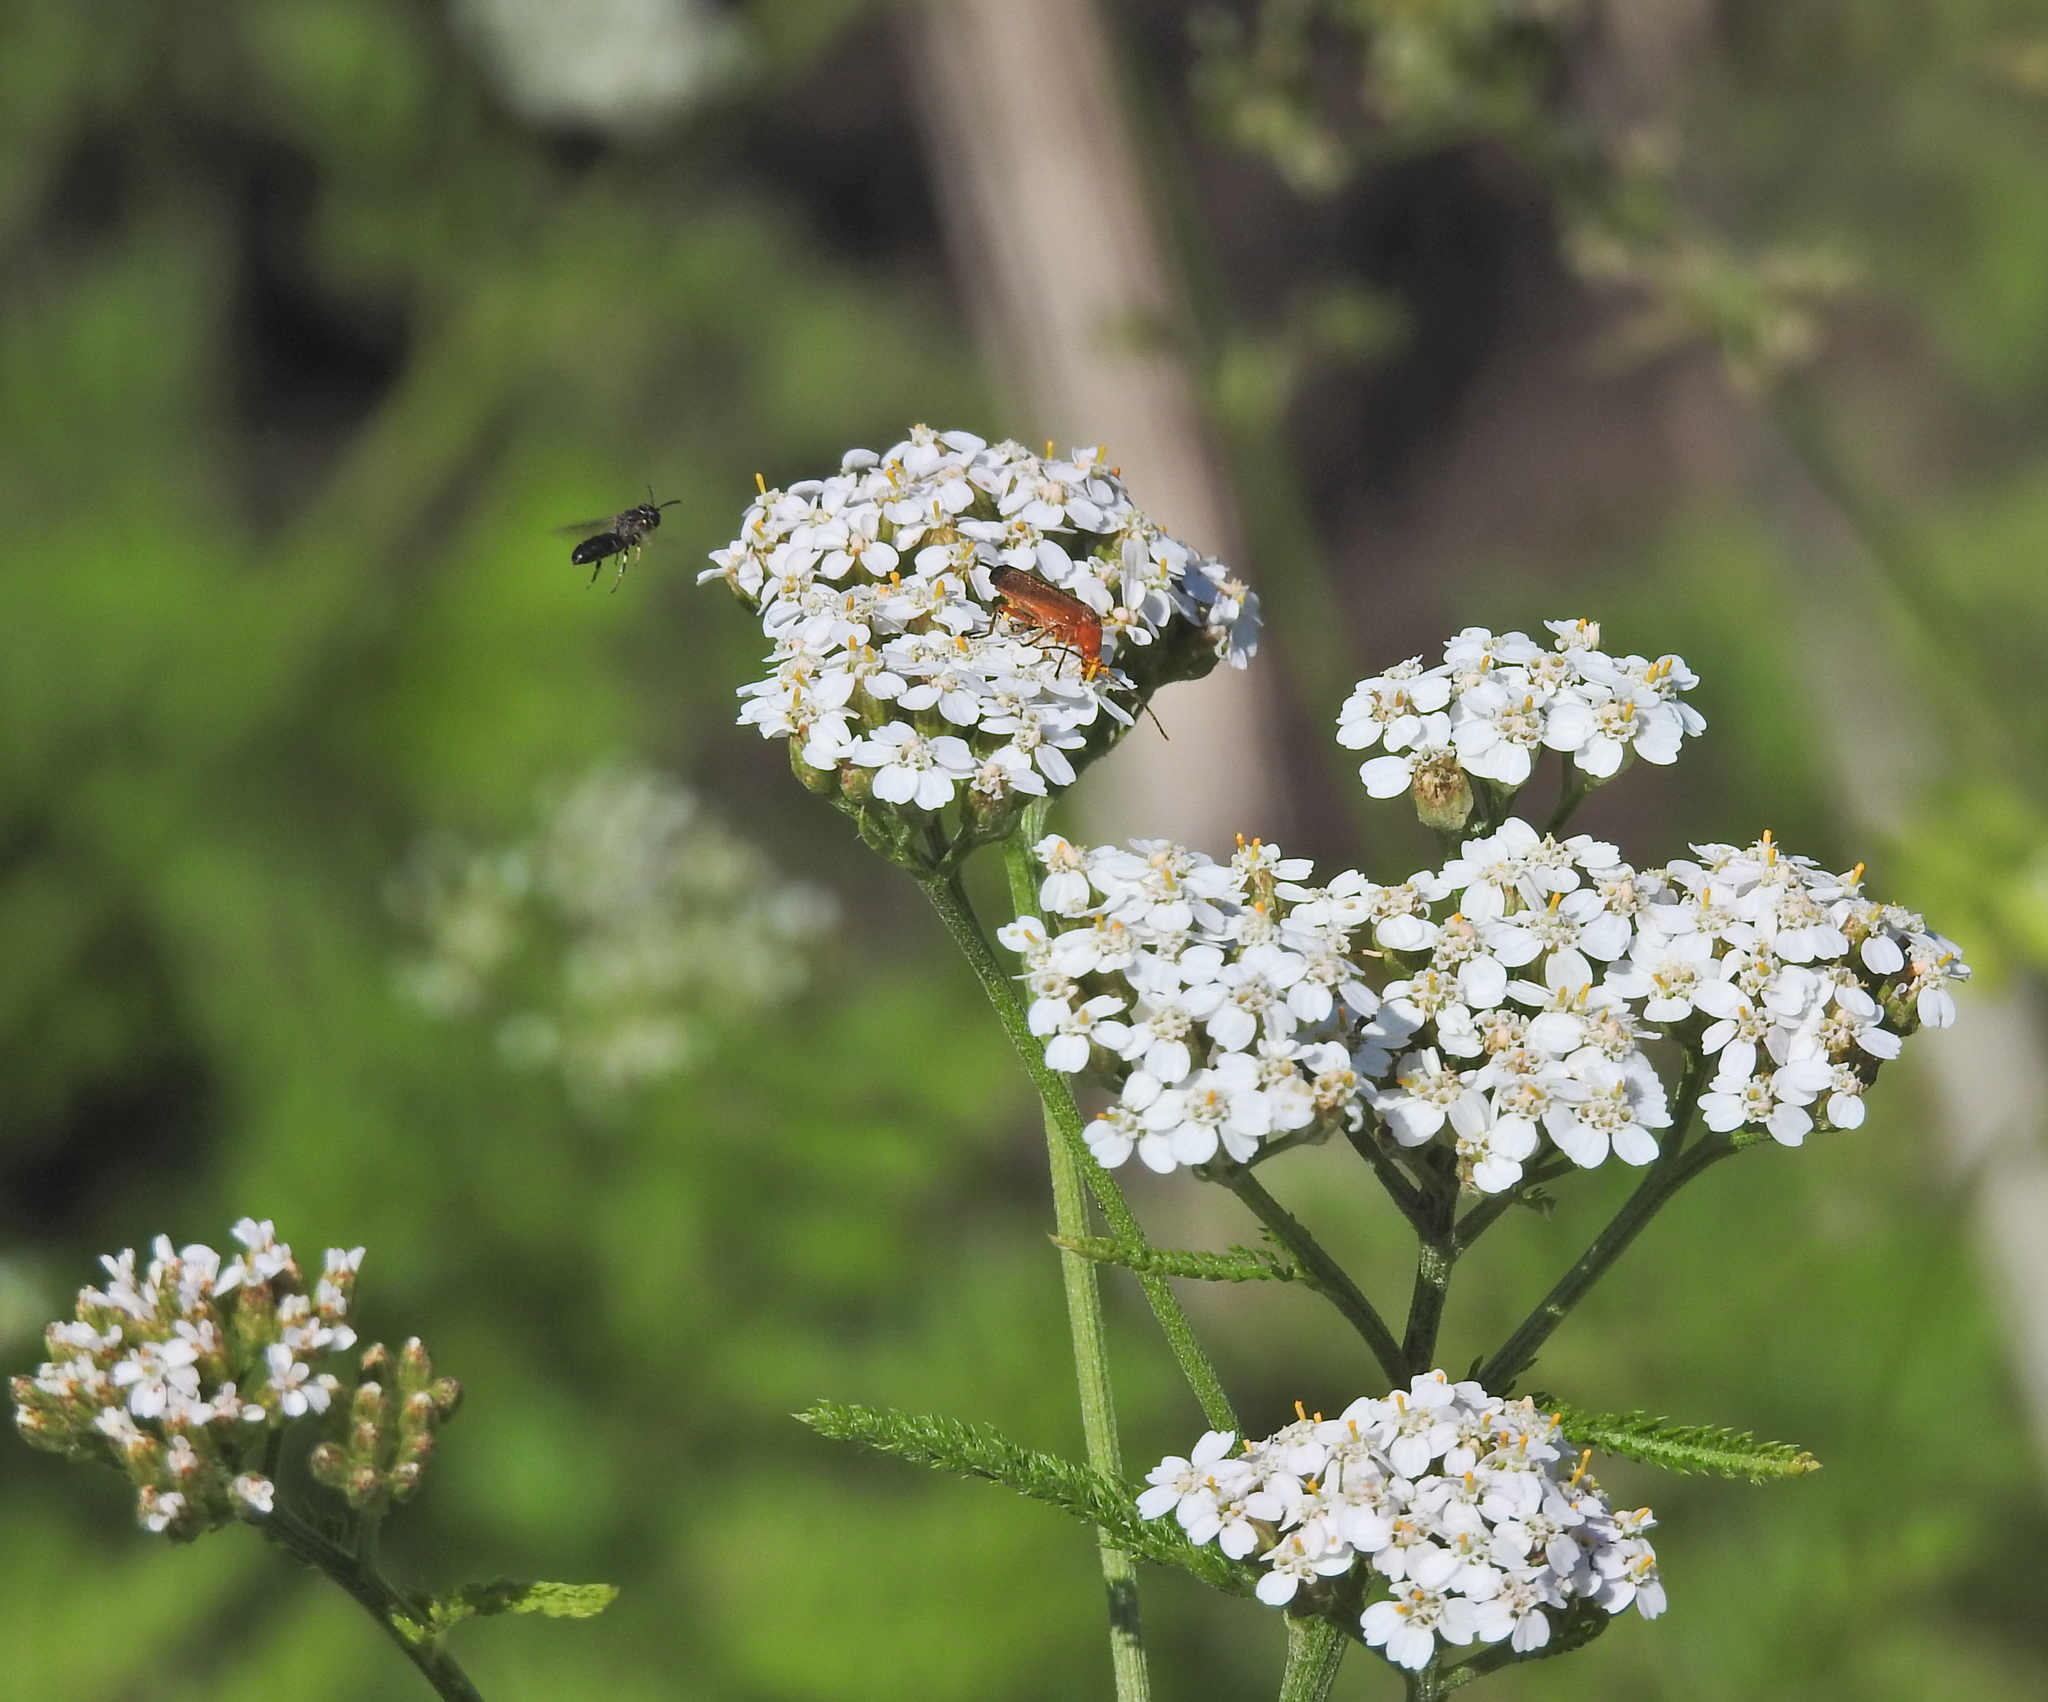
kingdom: Animalia
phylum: Arthropoda
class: Insecta
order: Coleoptera
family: Cantharidae
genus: Rhagonycha
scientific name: Rhagonycha fulva
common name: Common red soldier beetle
